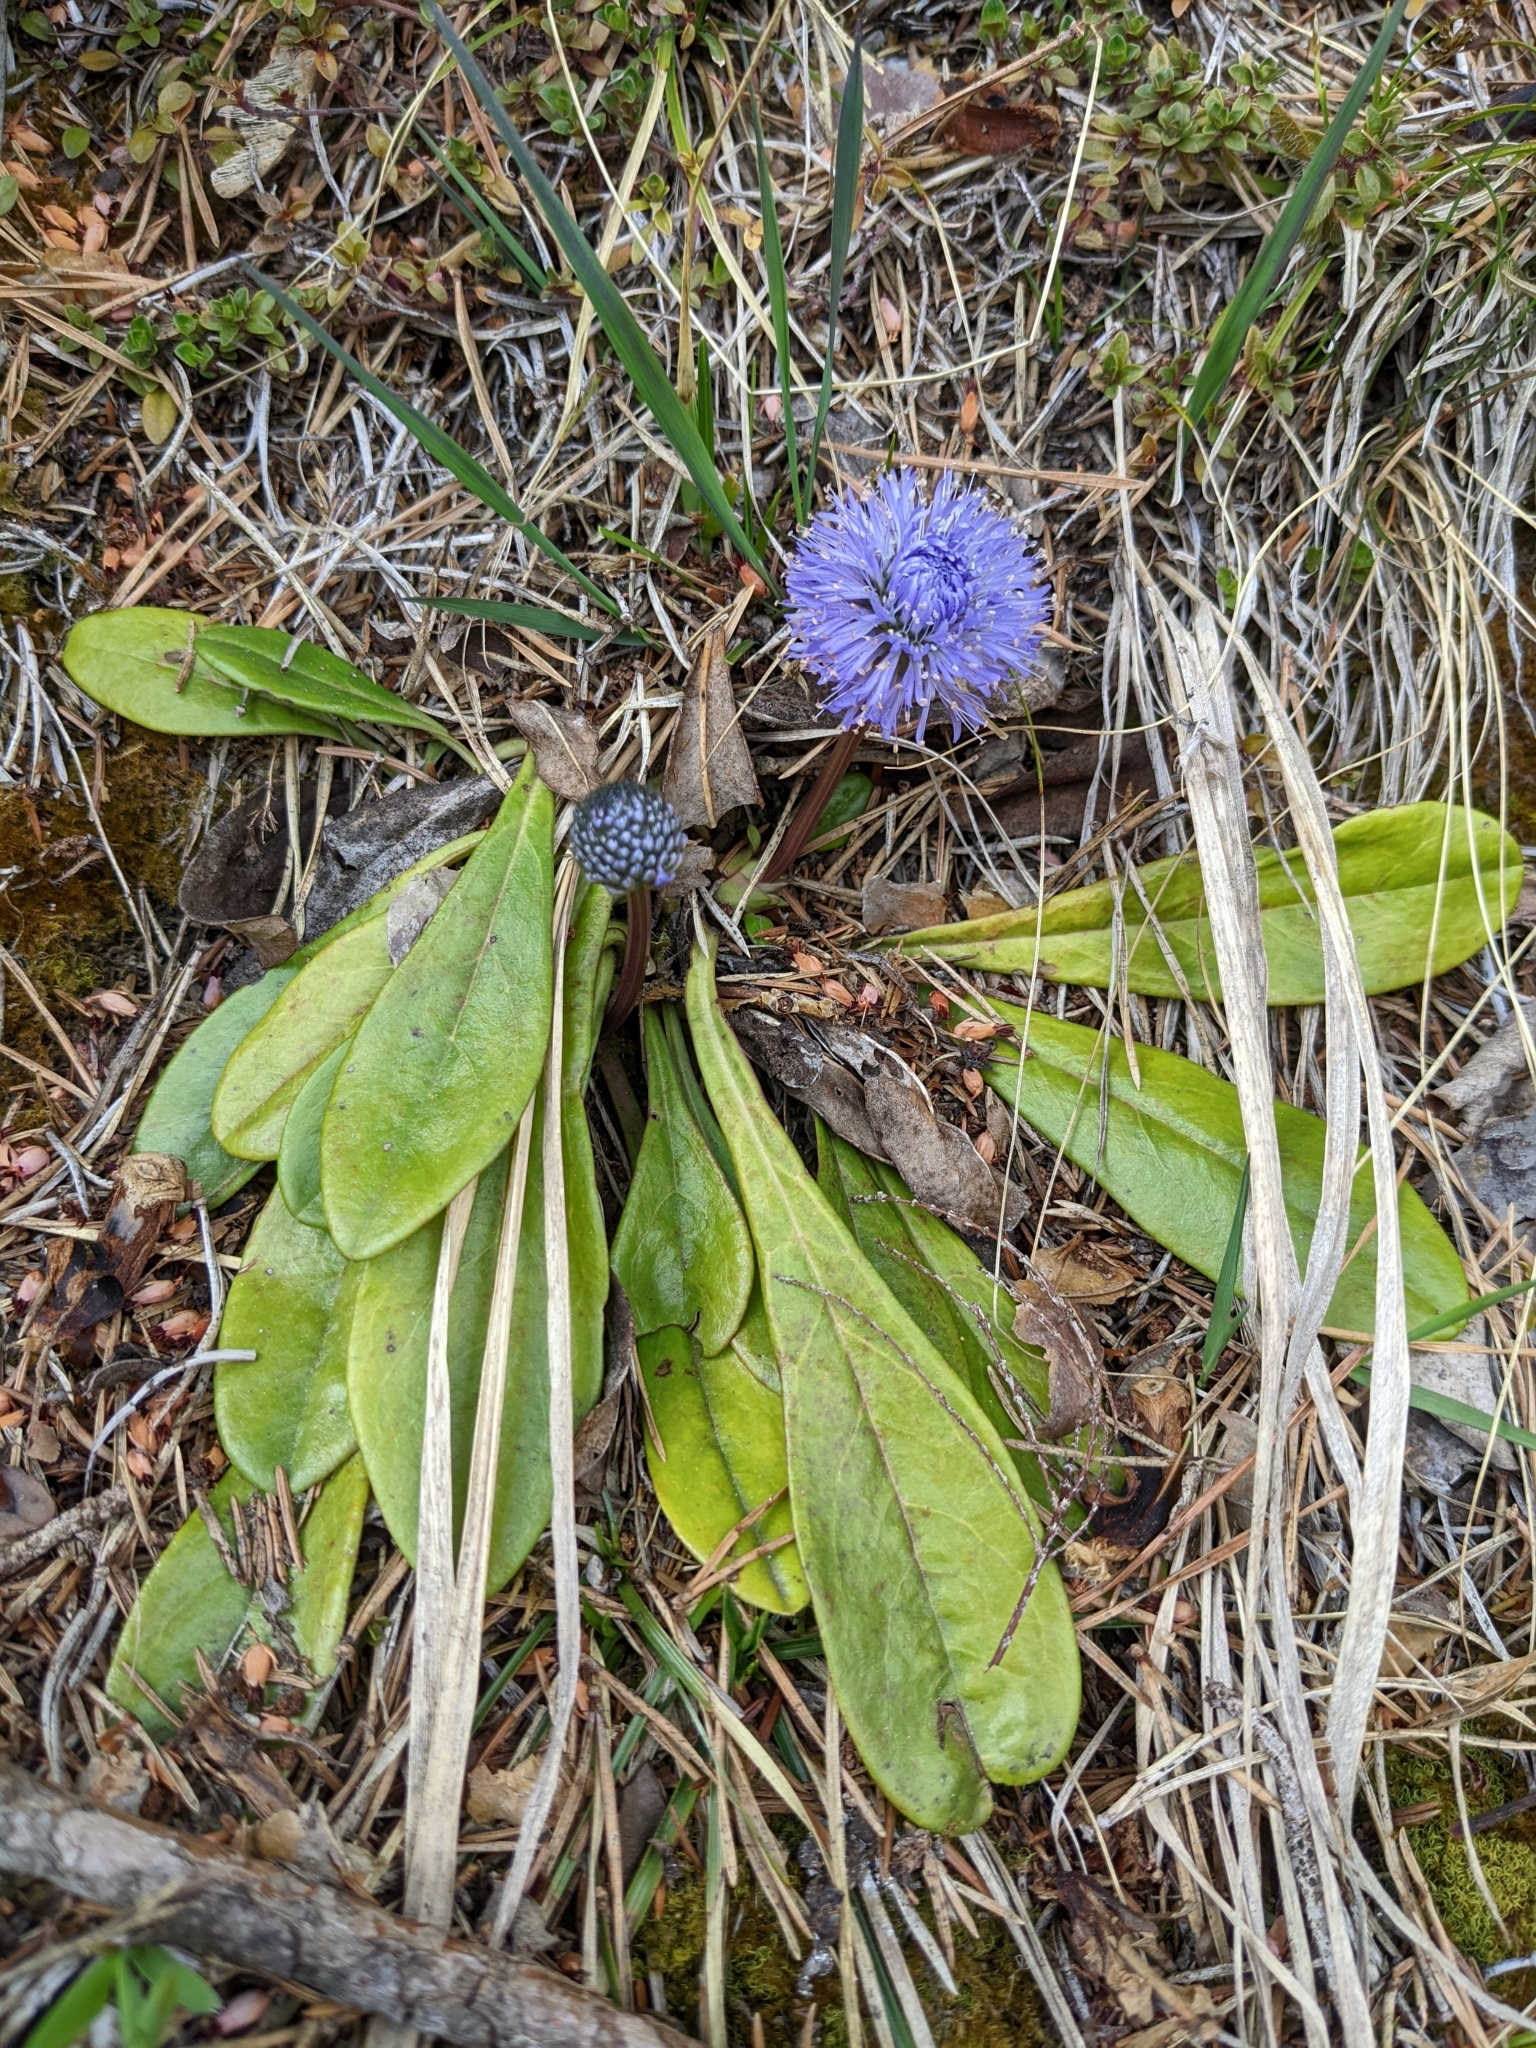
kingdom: Plantae
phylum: Tracheophyta
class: Magnoliopsida
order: Lamiales
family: Plantaginaceae
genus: Globularia
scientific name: Globularia nudicaulis
